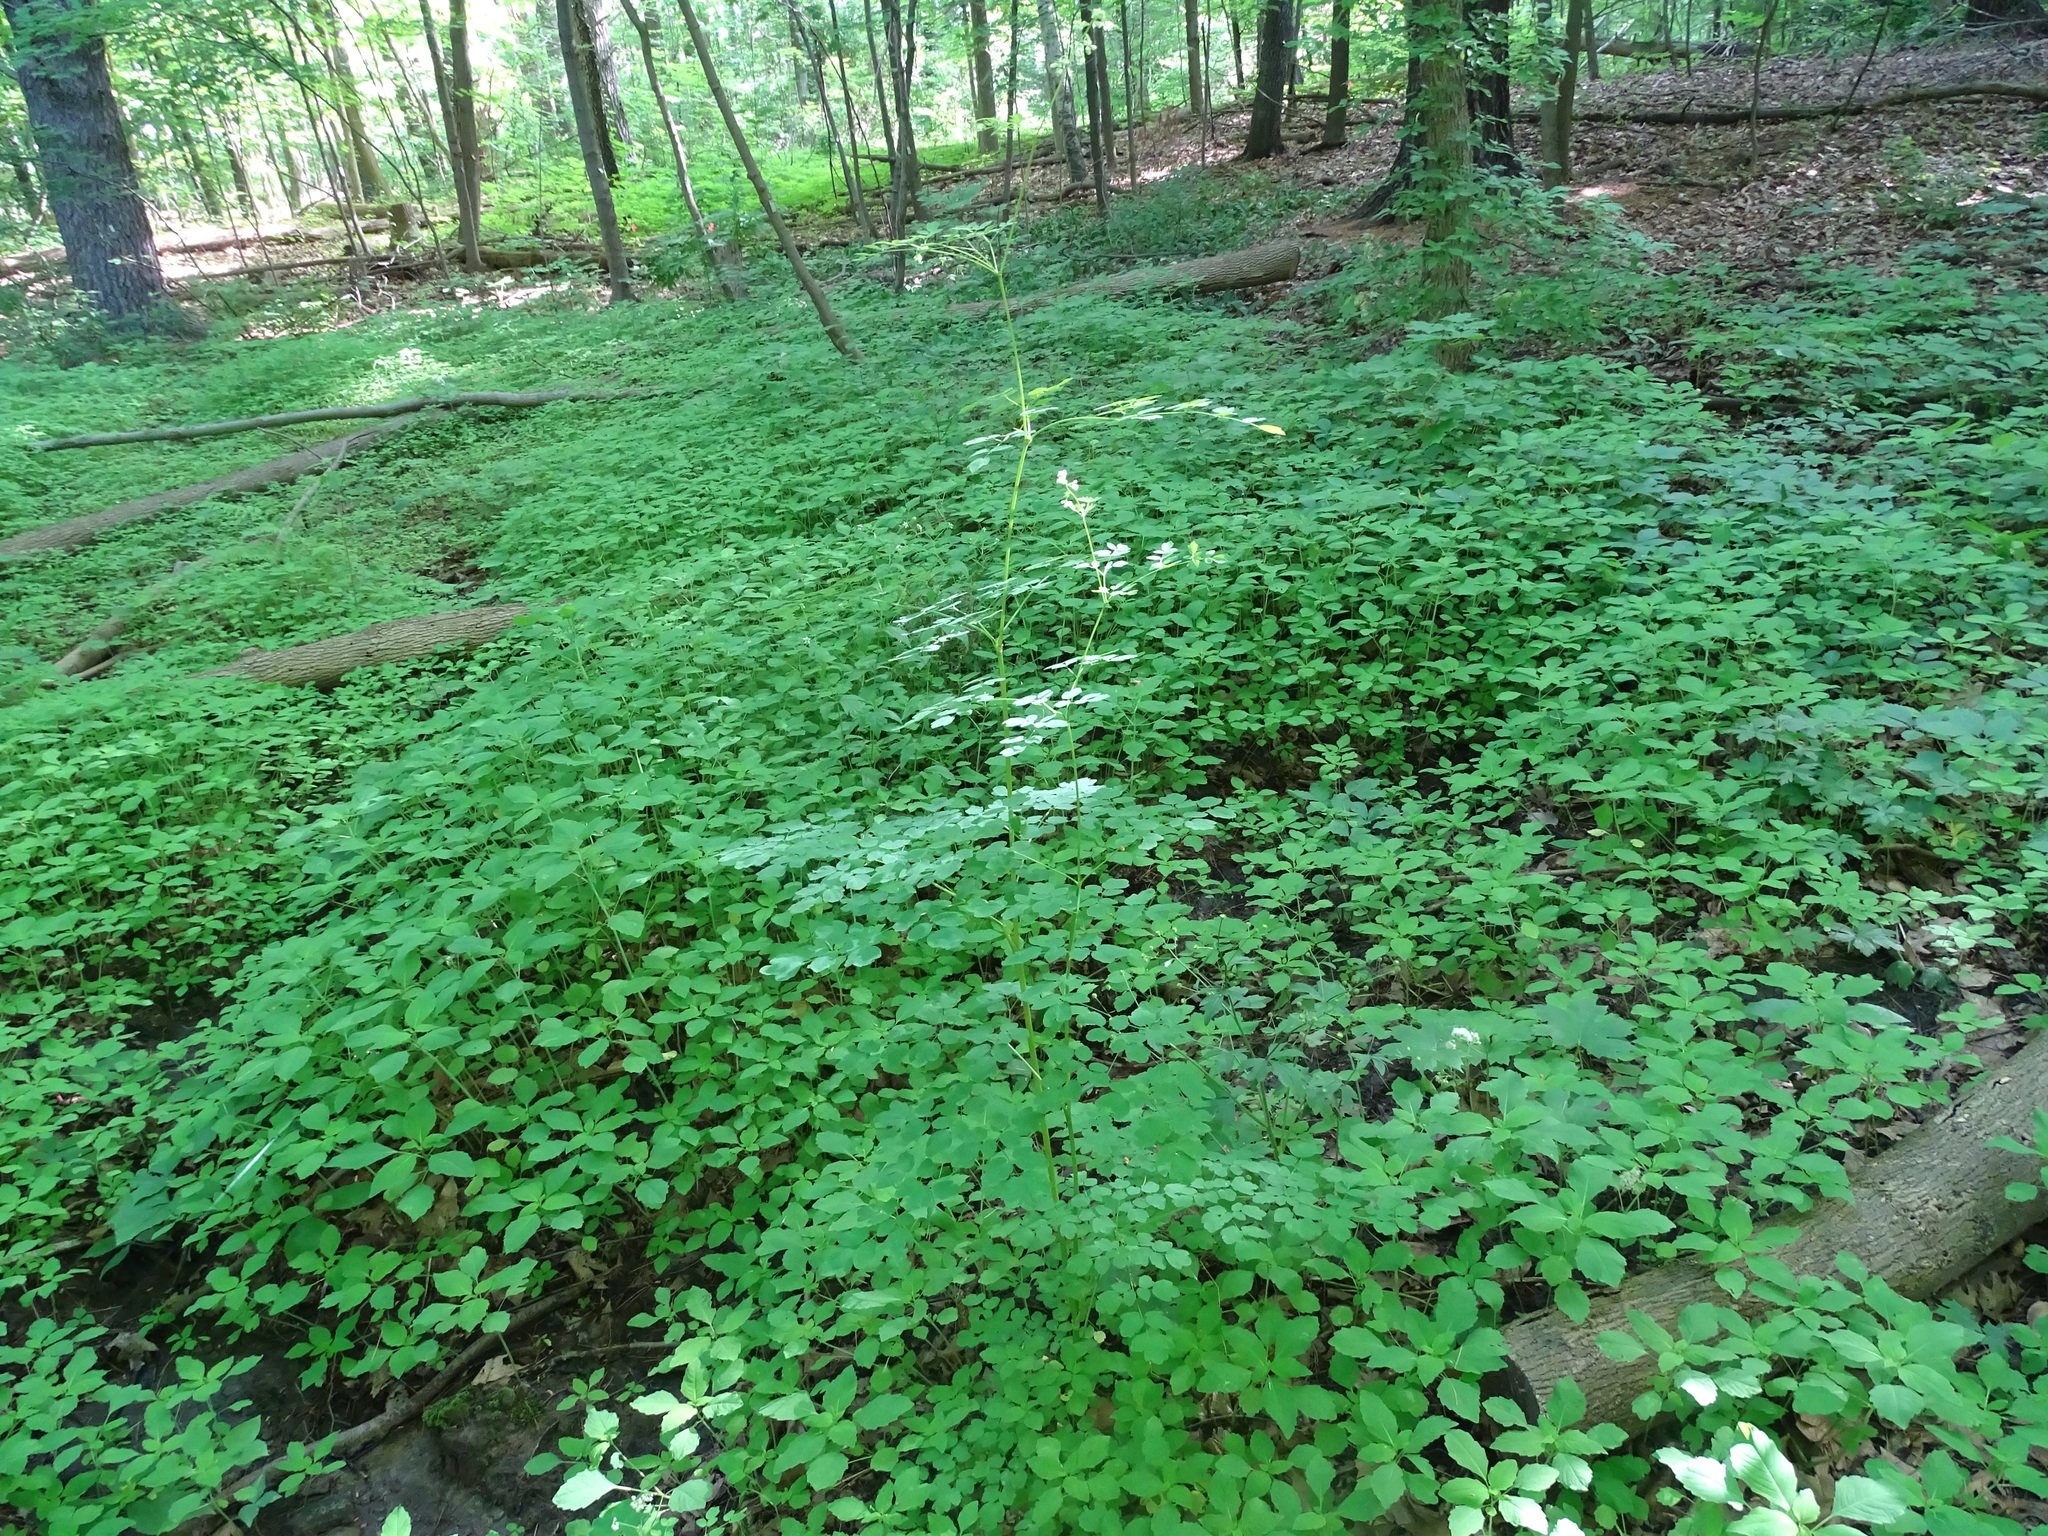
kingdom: Plantae
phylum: Tracheophyta
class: Magnoliopsida
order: Ranunculales
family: Ranunculaceae
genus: Thalictrum
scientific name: Thalictrum pubescens
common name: King-of-the-meadow
